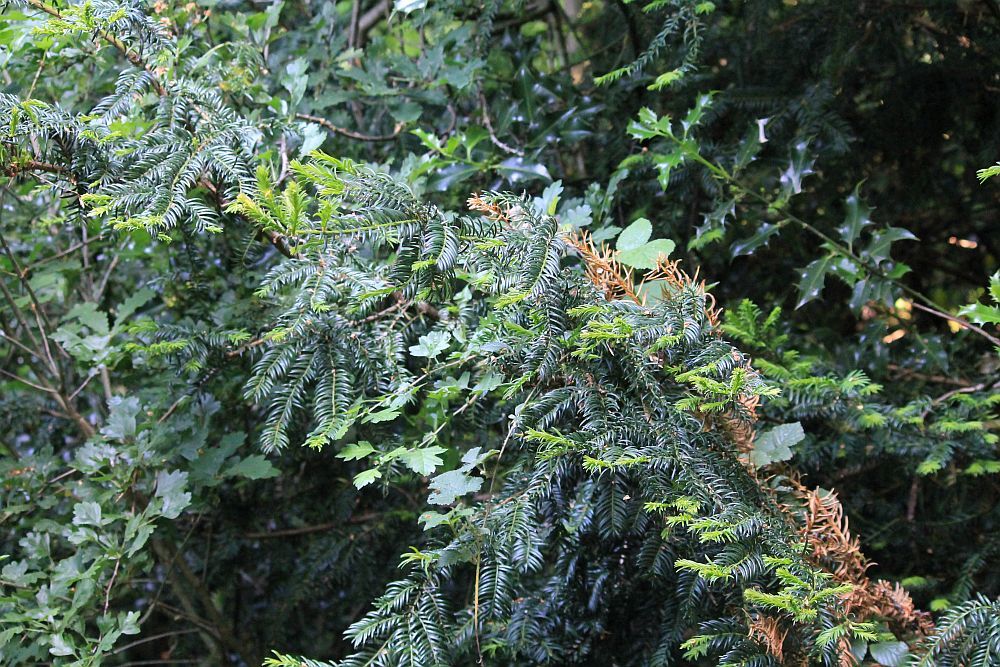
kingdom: Plantae
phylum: Tracheophyta
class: Pinopsida
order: Pinales
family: Taxaceae
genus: Taxus
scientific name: Taxus baccata
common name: Yew
